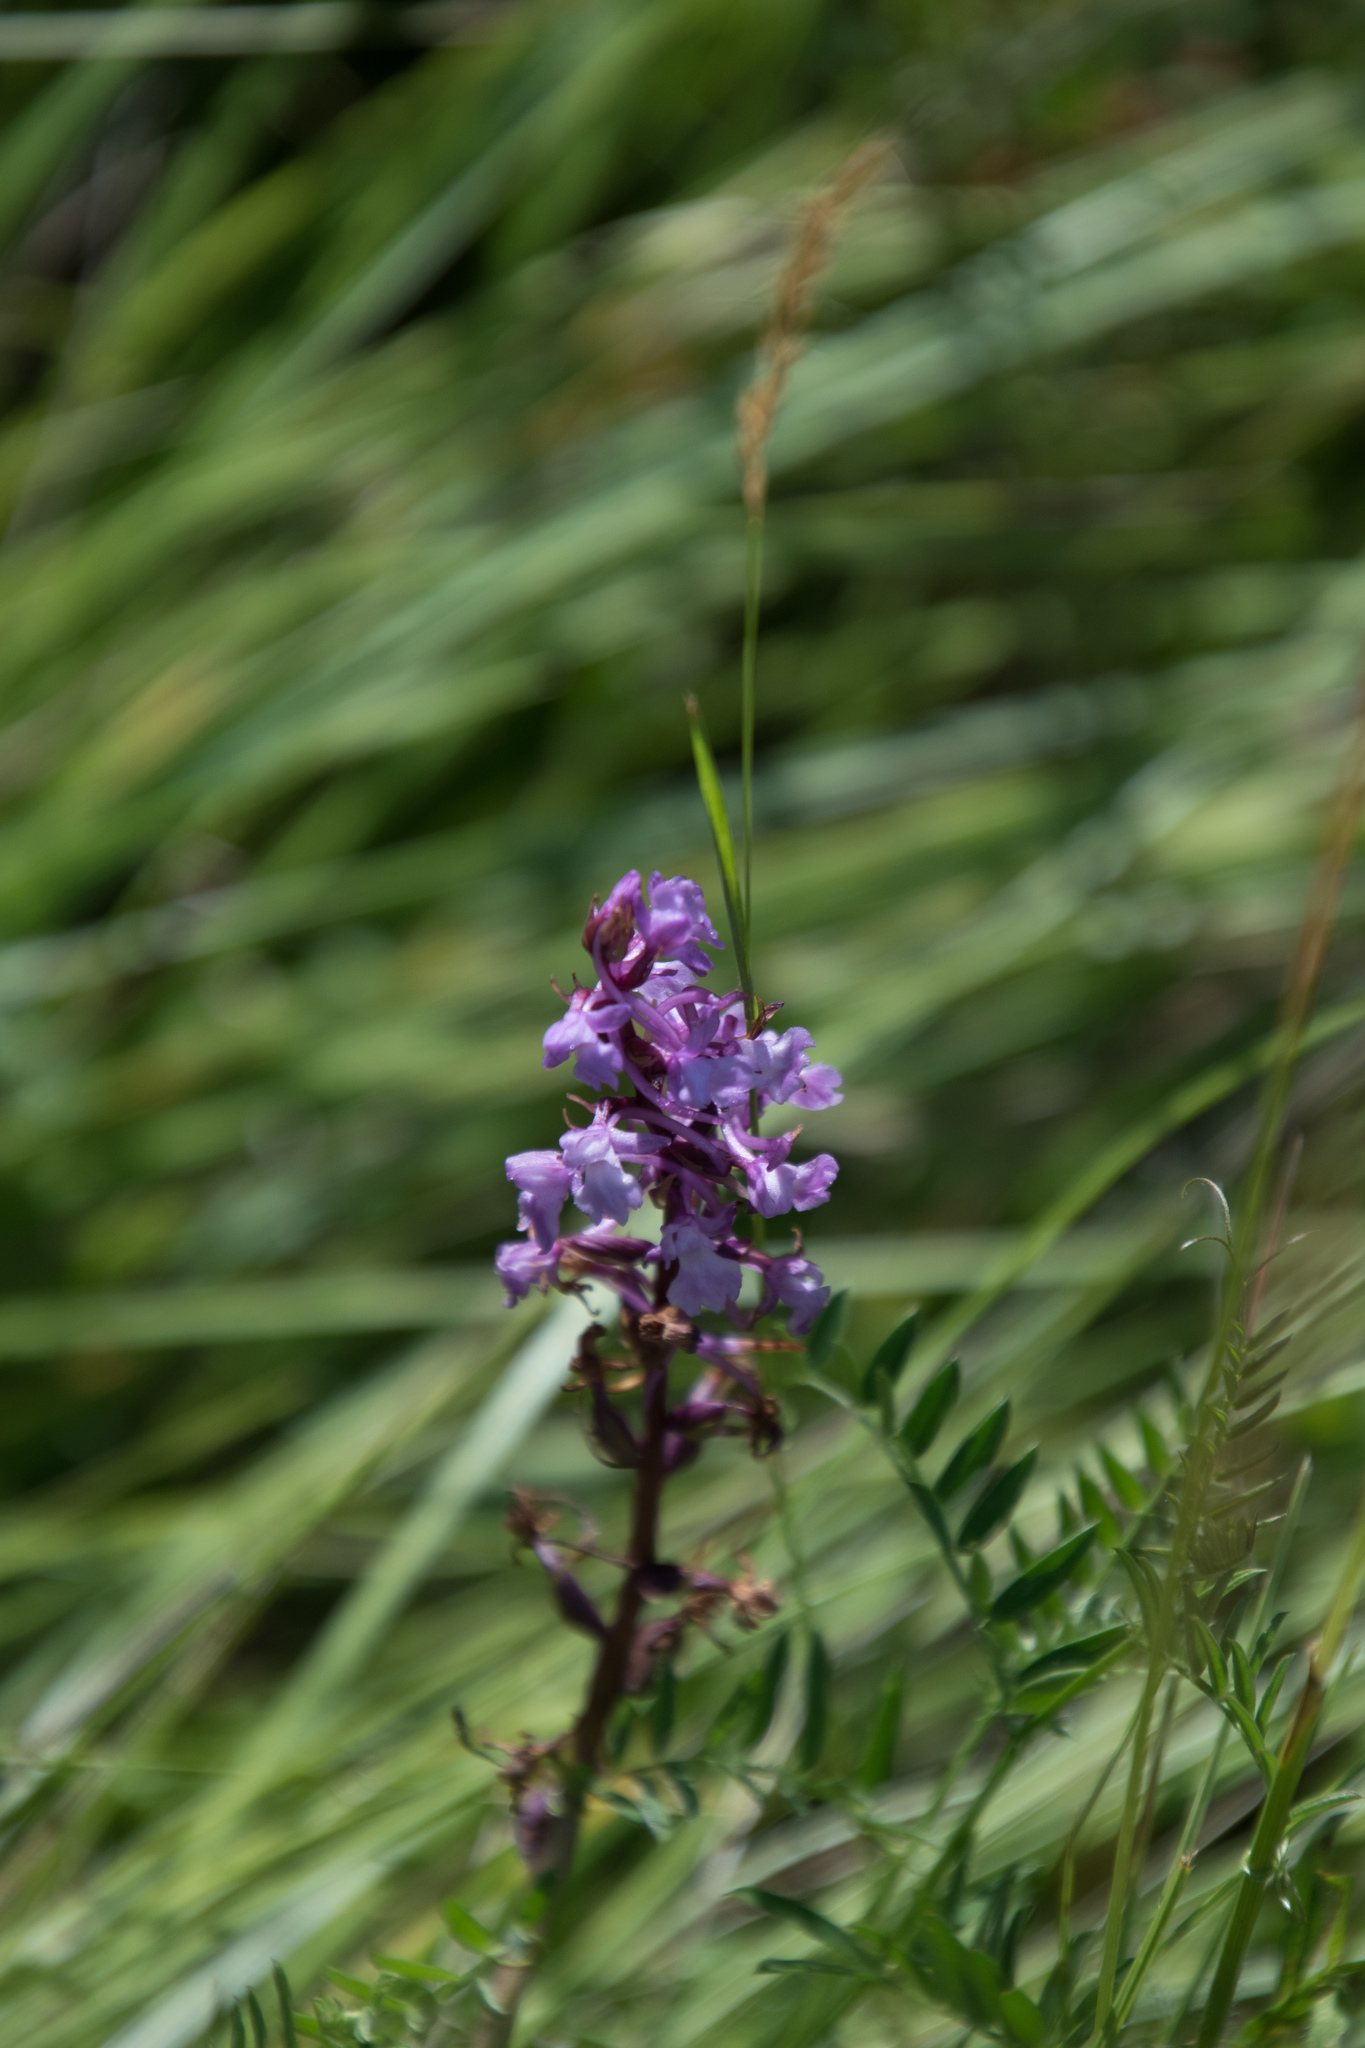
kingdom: Plantae
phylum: Tracheophyta
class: Liliopsida
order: Asparagales
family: Orchidaceae
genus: Gymnadenia
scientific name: Gymnadenia conopsea
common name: Fragrant orchid
